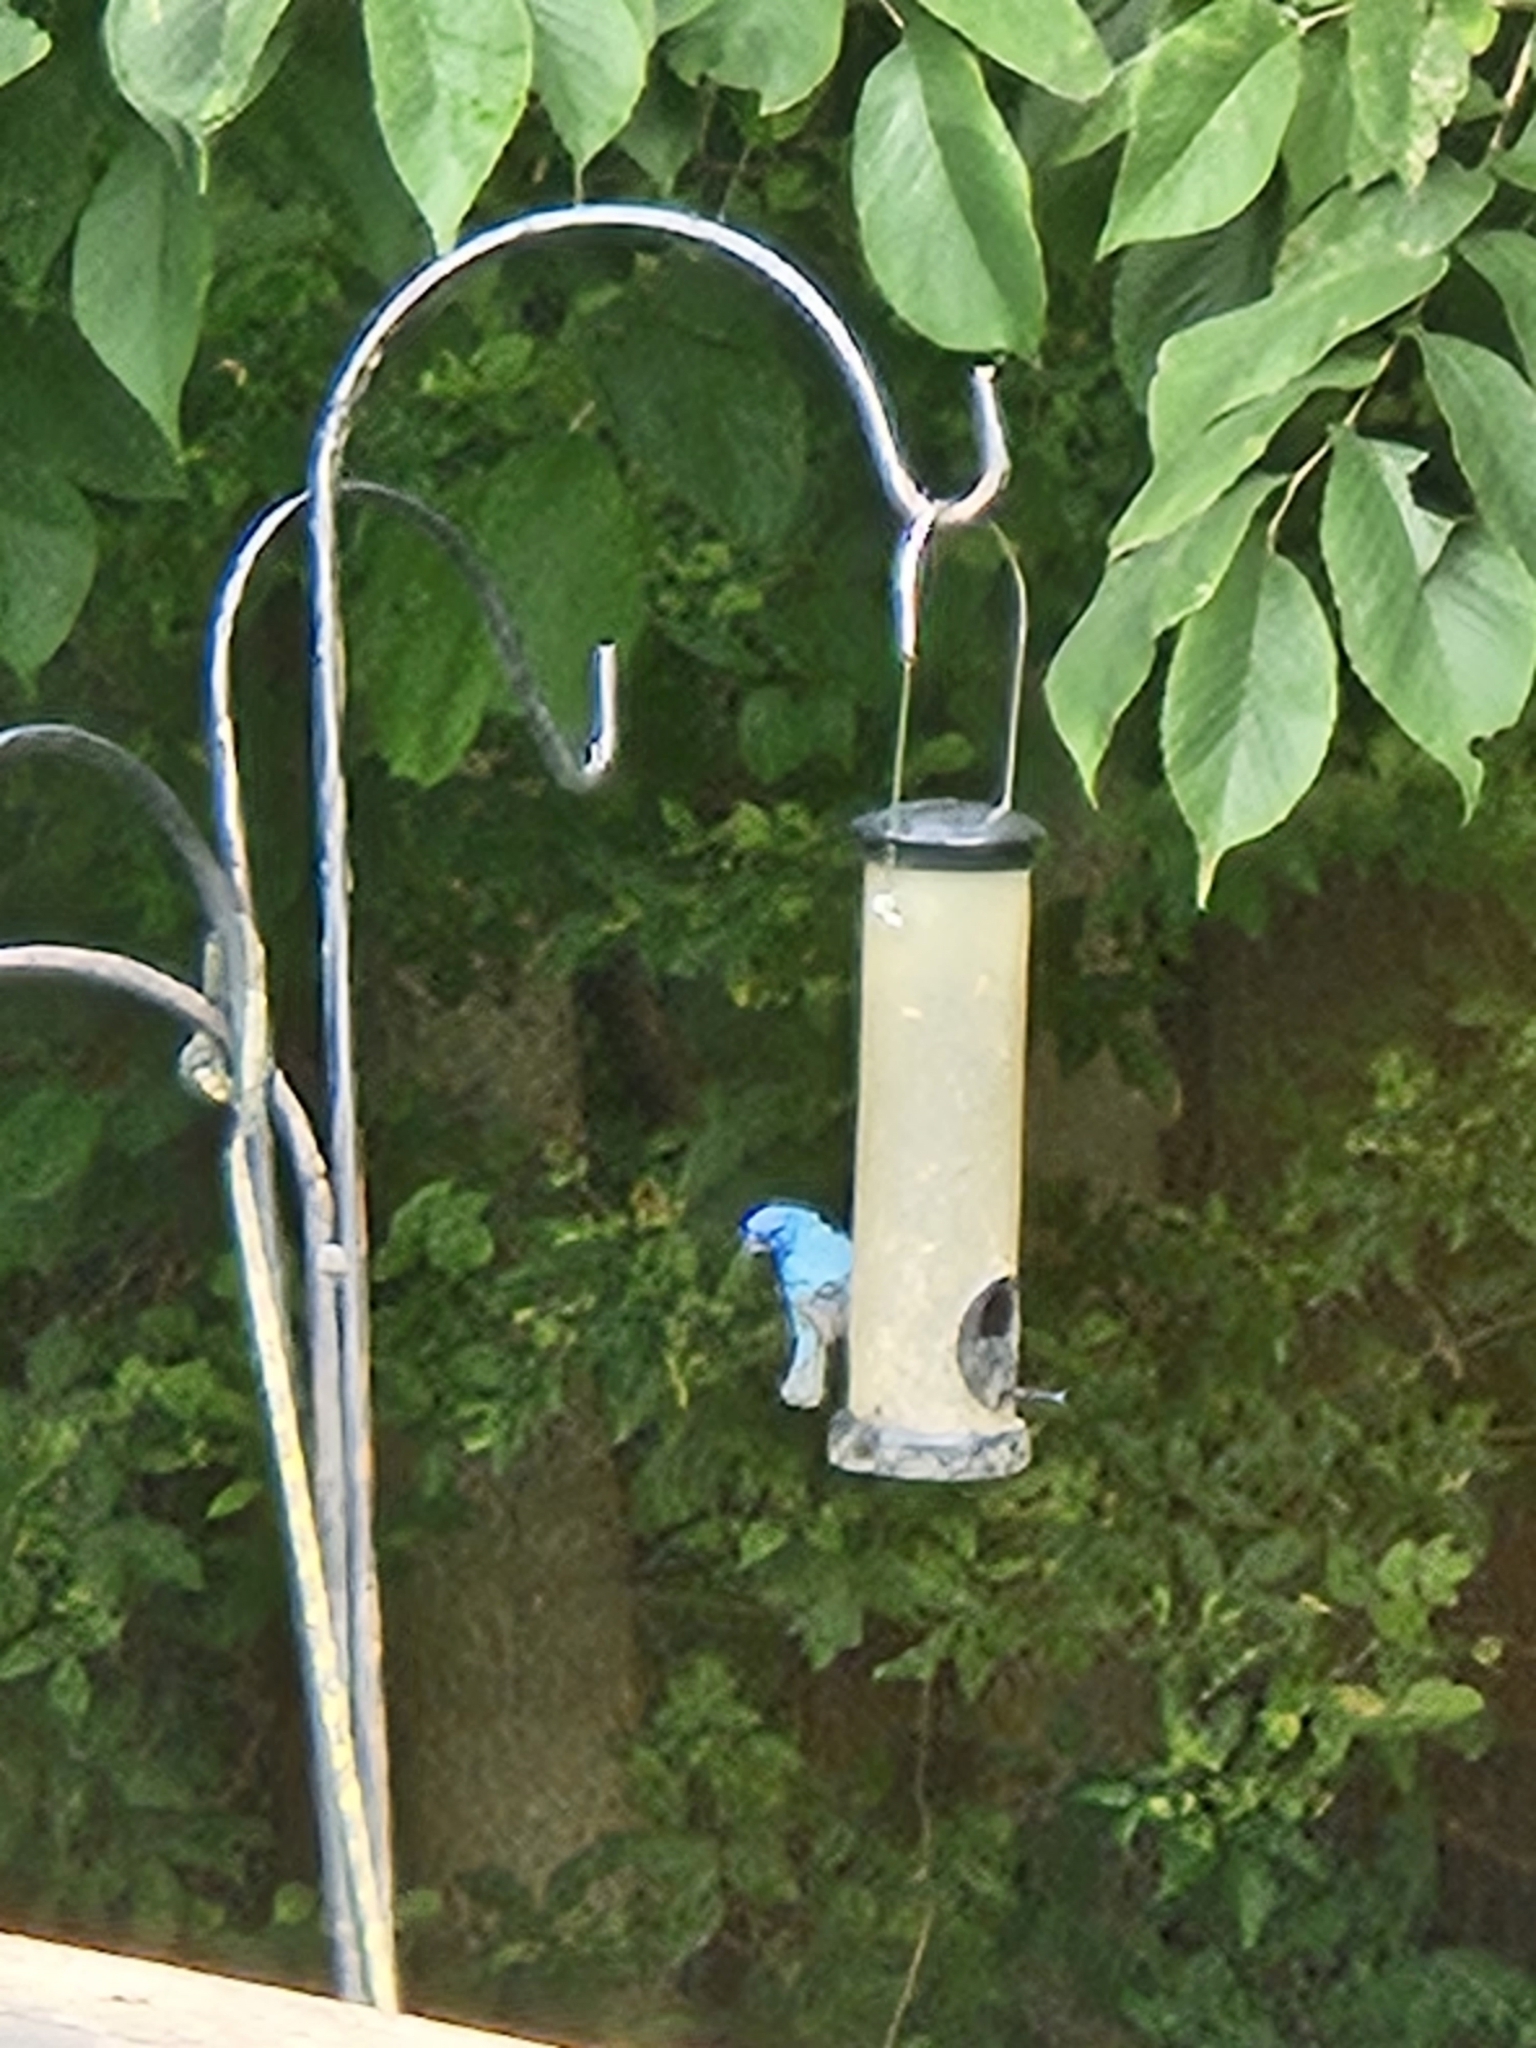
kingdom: Animalia
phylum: Chordata
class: Aves
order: Passeriformes
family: Cardinalidae
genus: Passerina
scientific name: Passerina cyanea
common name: Indigo bunting
